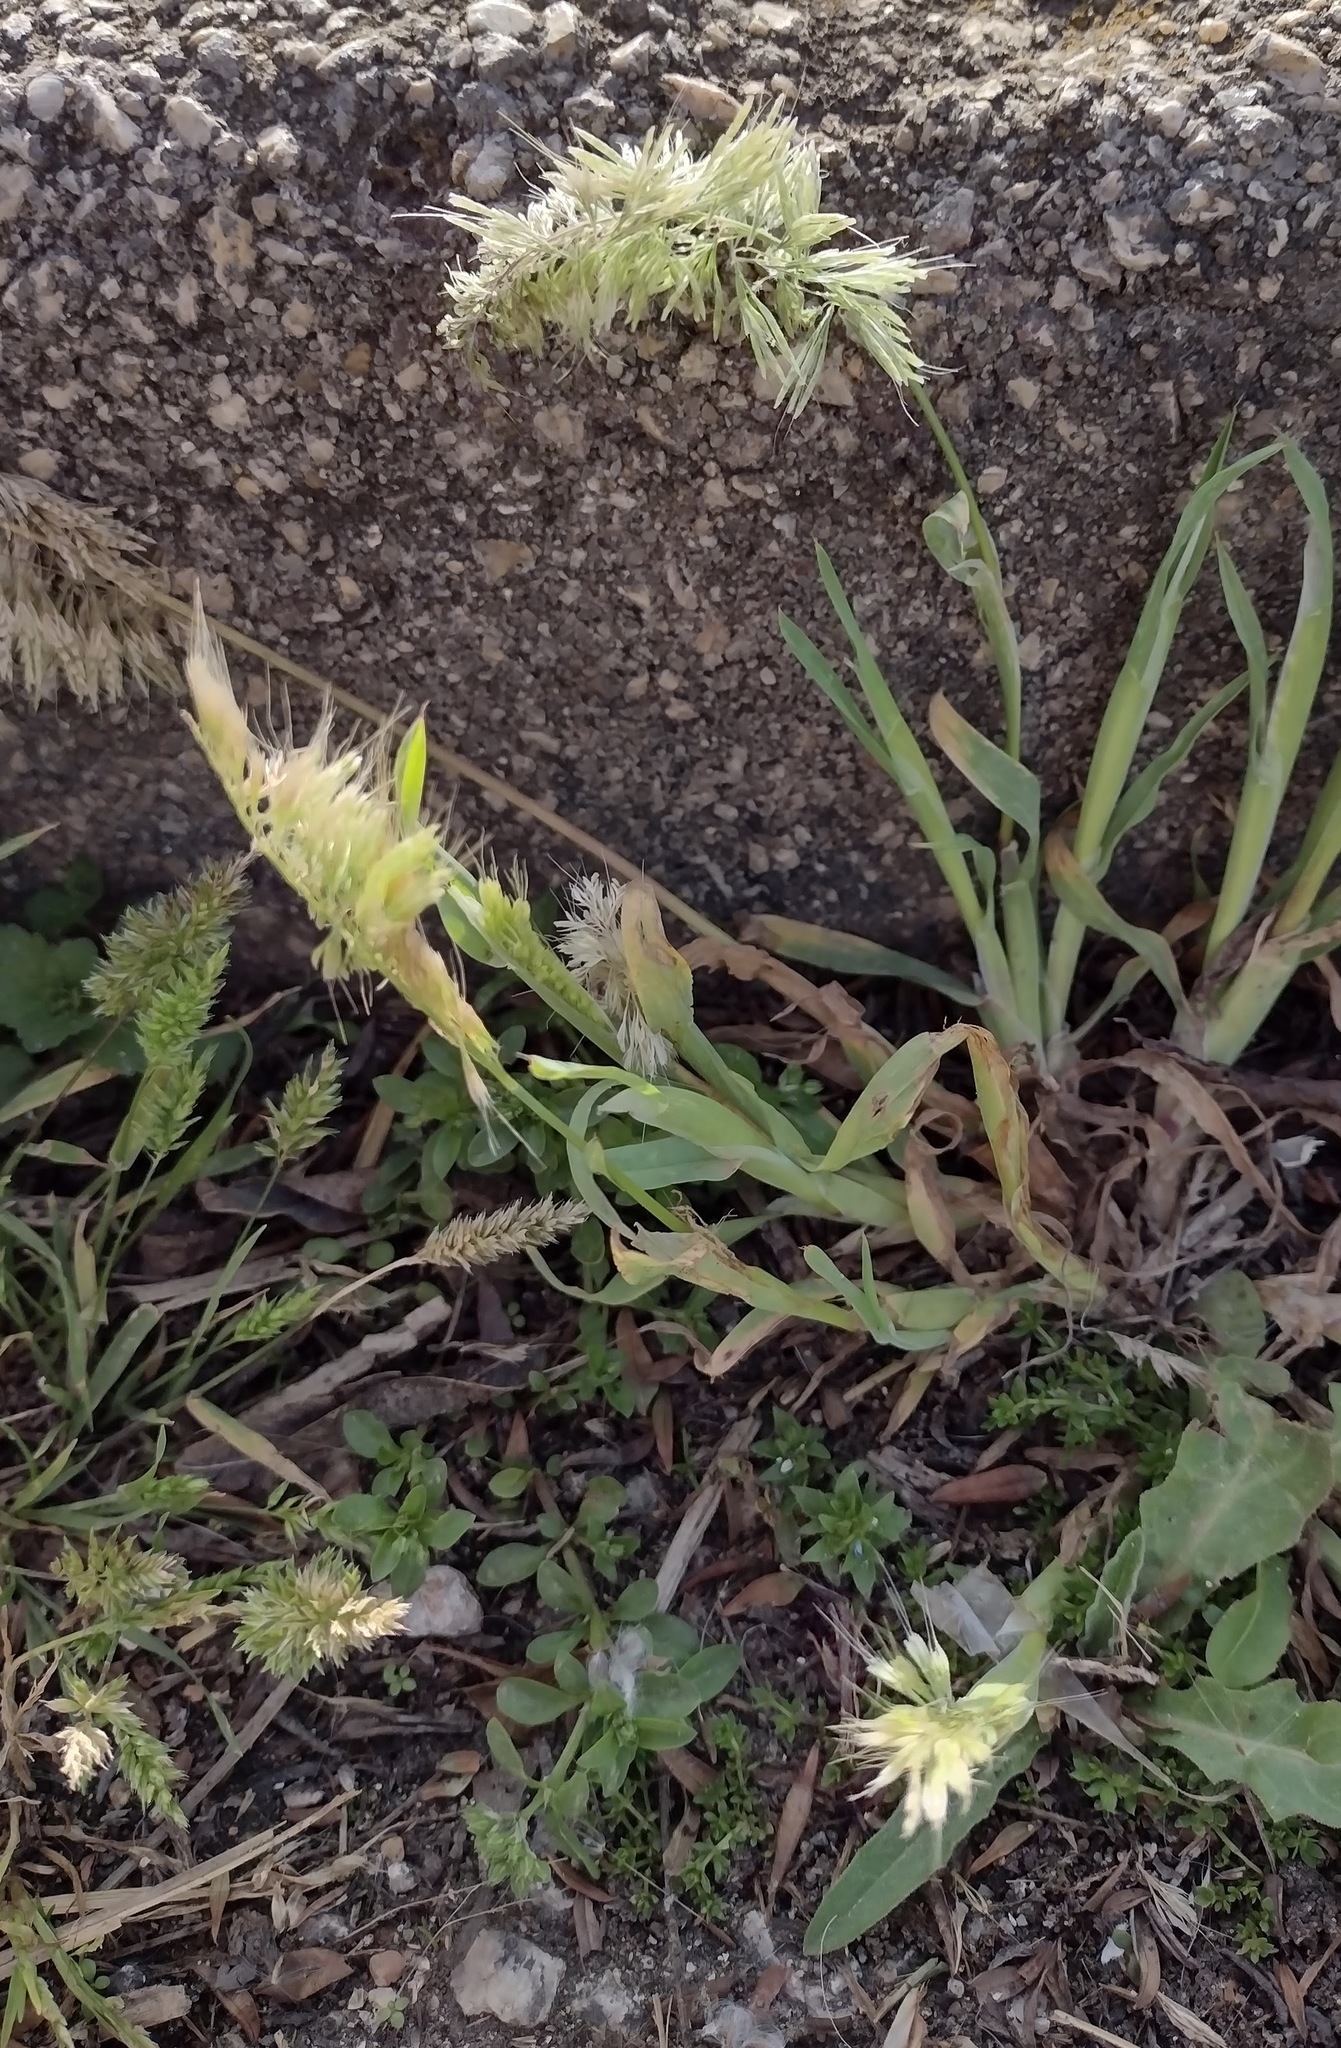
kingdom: Plantae
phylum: Tracheophyta
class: Liliopsida
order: Poales
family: Poaceae
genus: Lamarckia
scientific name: Lamarckia aurea
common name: Golden dog's-tail
